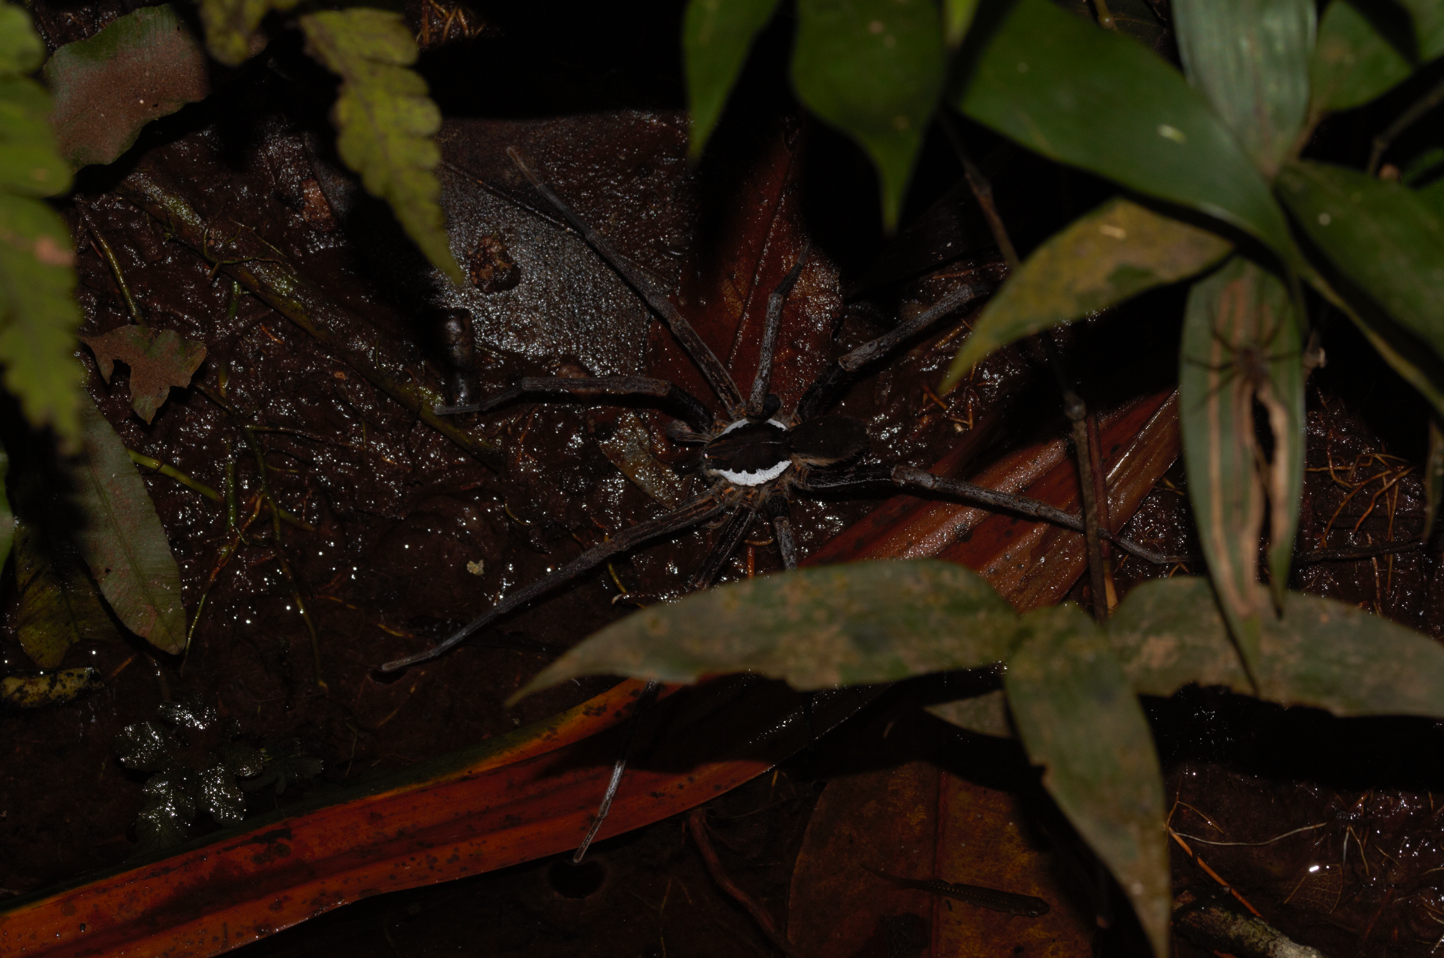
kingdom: Animalia
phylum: Arthropoda
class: Arachnida
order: Araneae
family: Ctenidae
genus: Ancylometes
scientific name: Ancylometes
